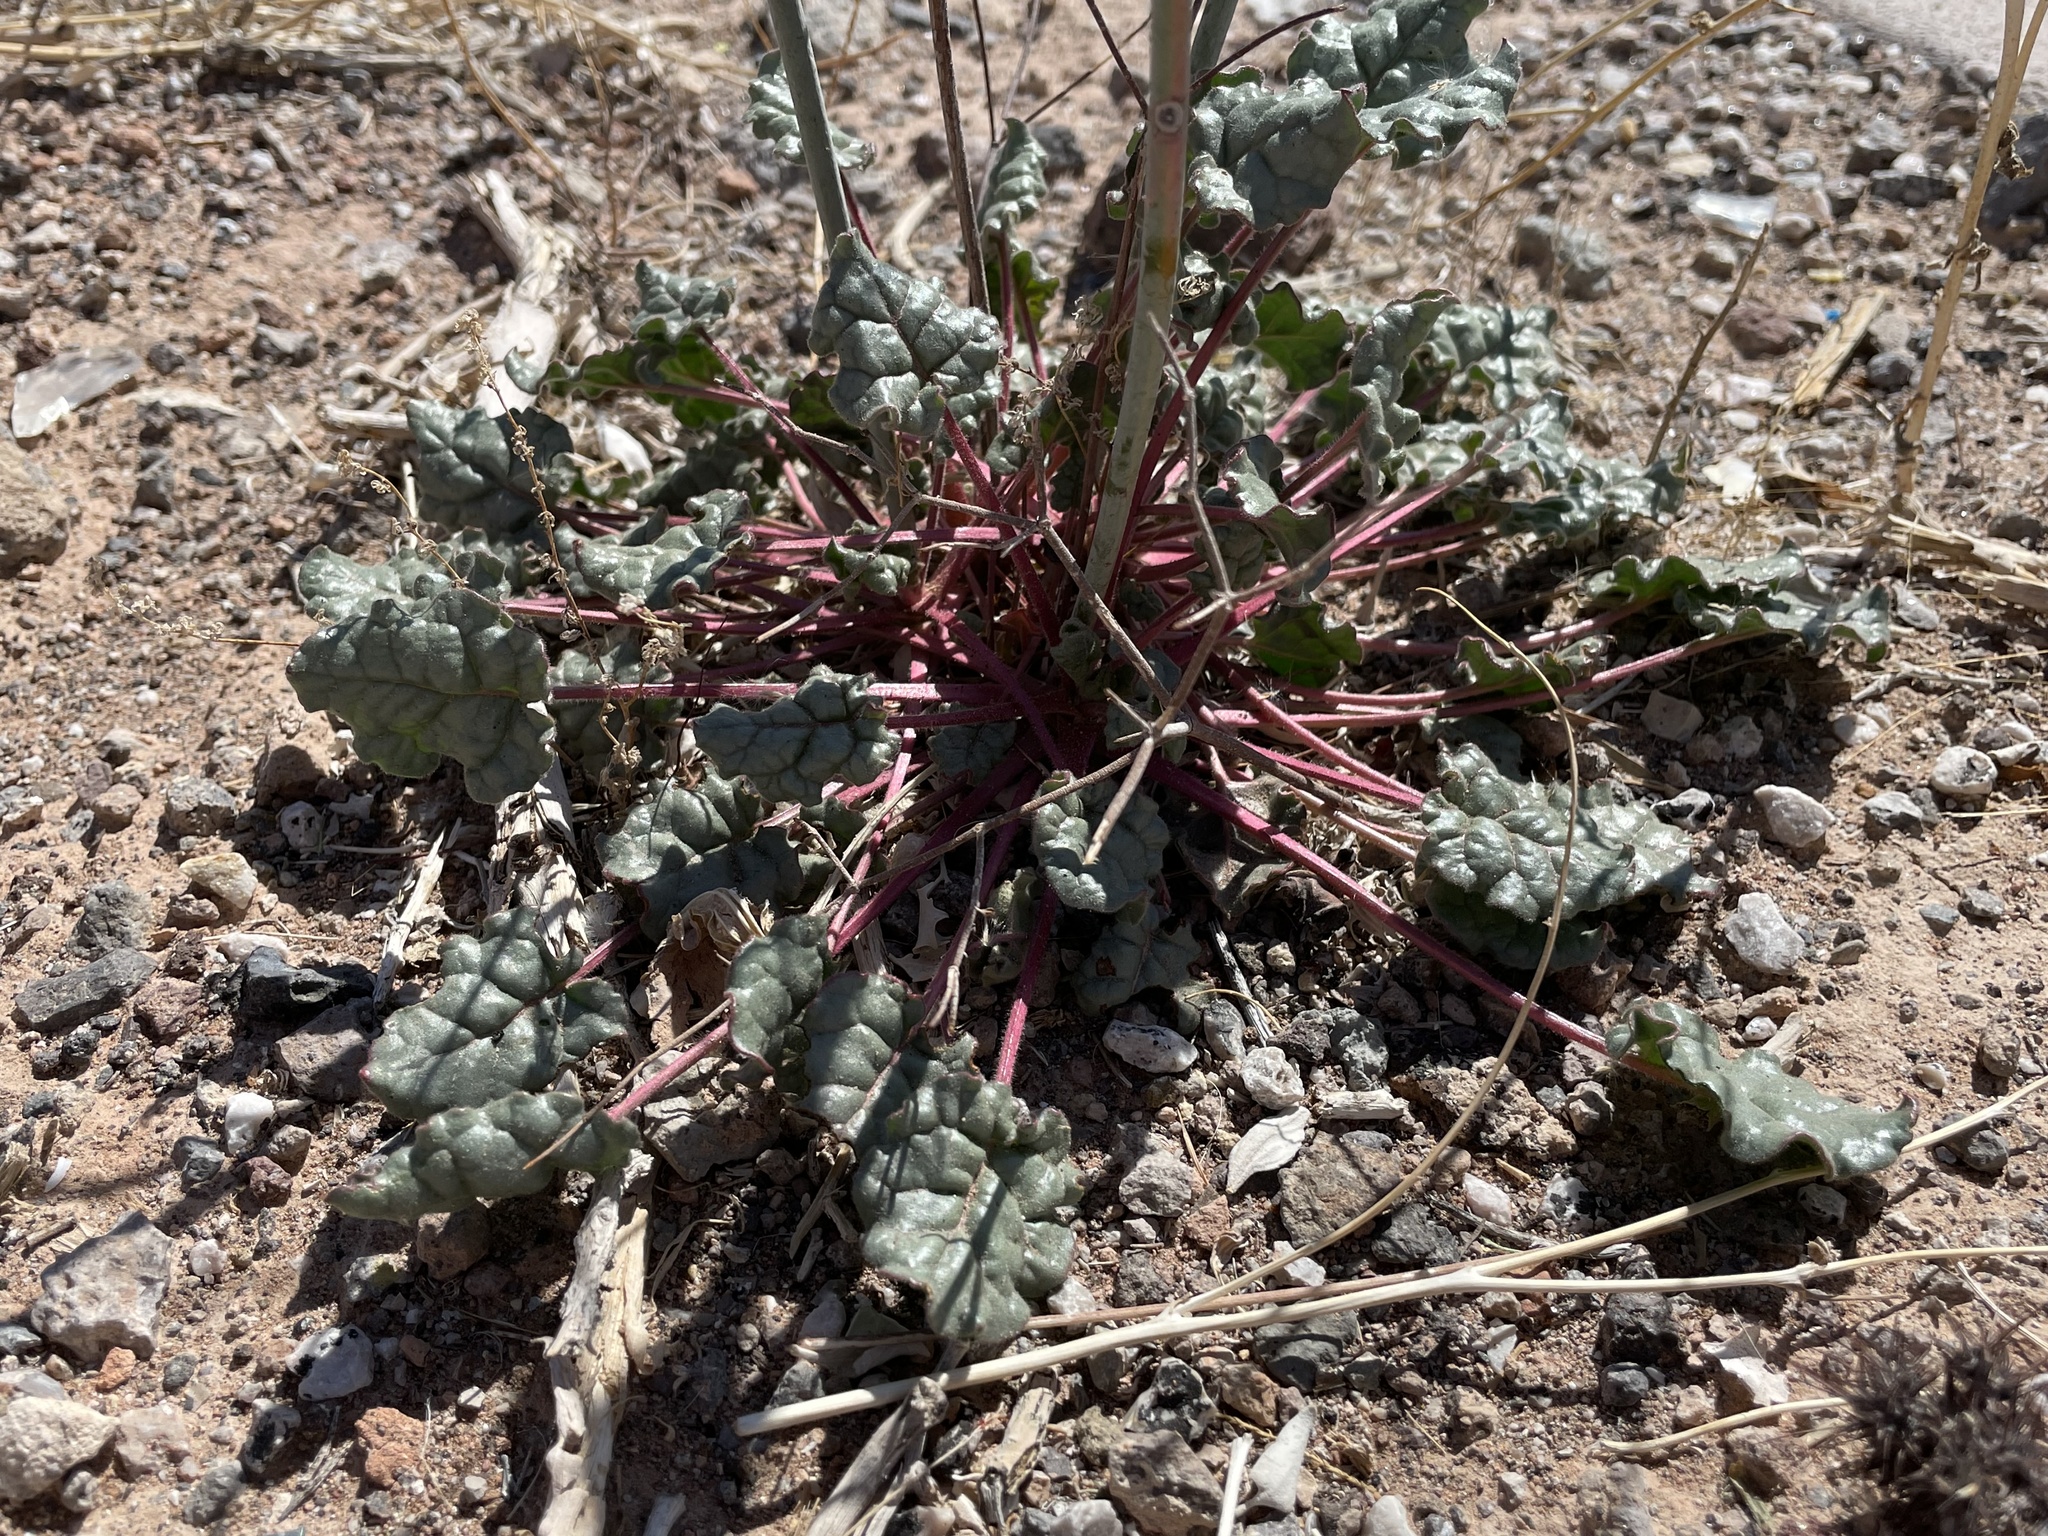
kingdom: Plantae
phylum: Tracheophyta
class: Magnoliopsida
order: Caryophyllales
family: Polygonaceae
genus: Eriogonum
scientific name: Eriogonum inflatum
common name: Desert trumpet
